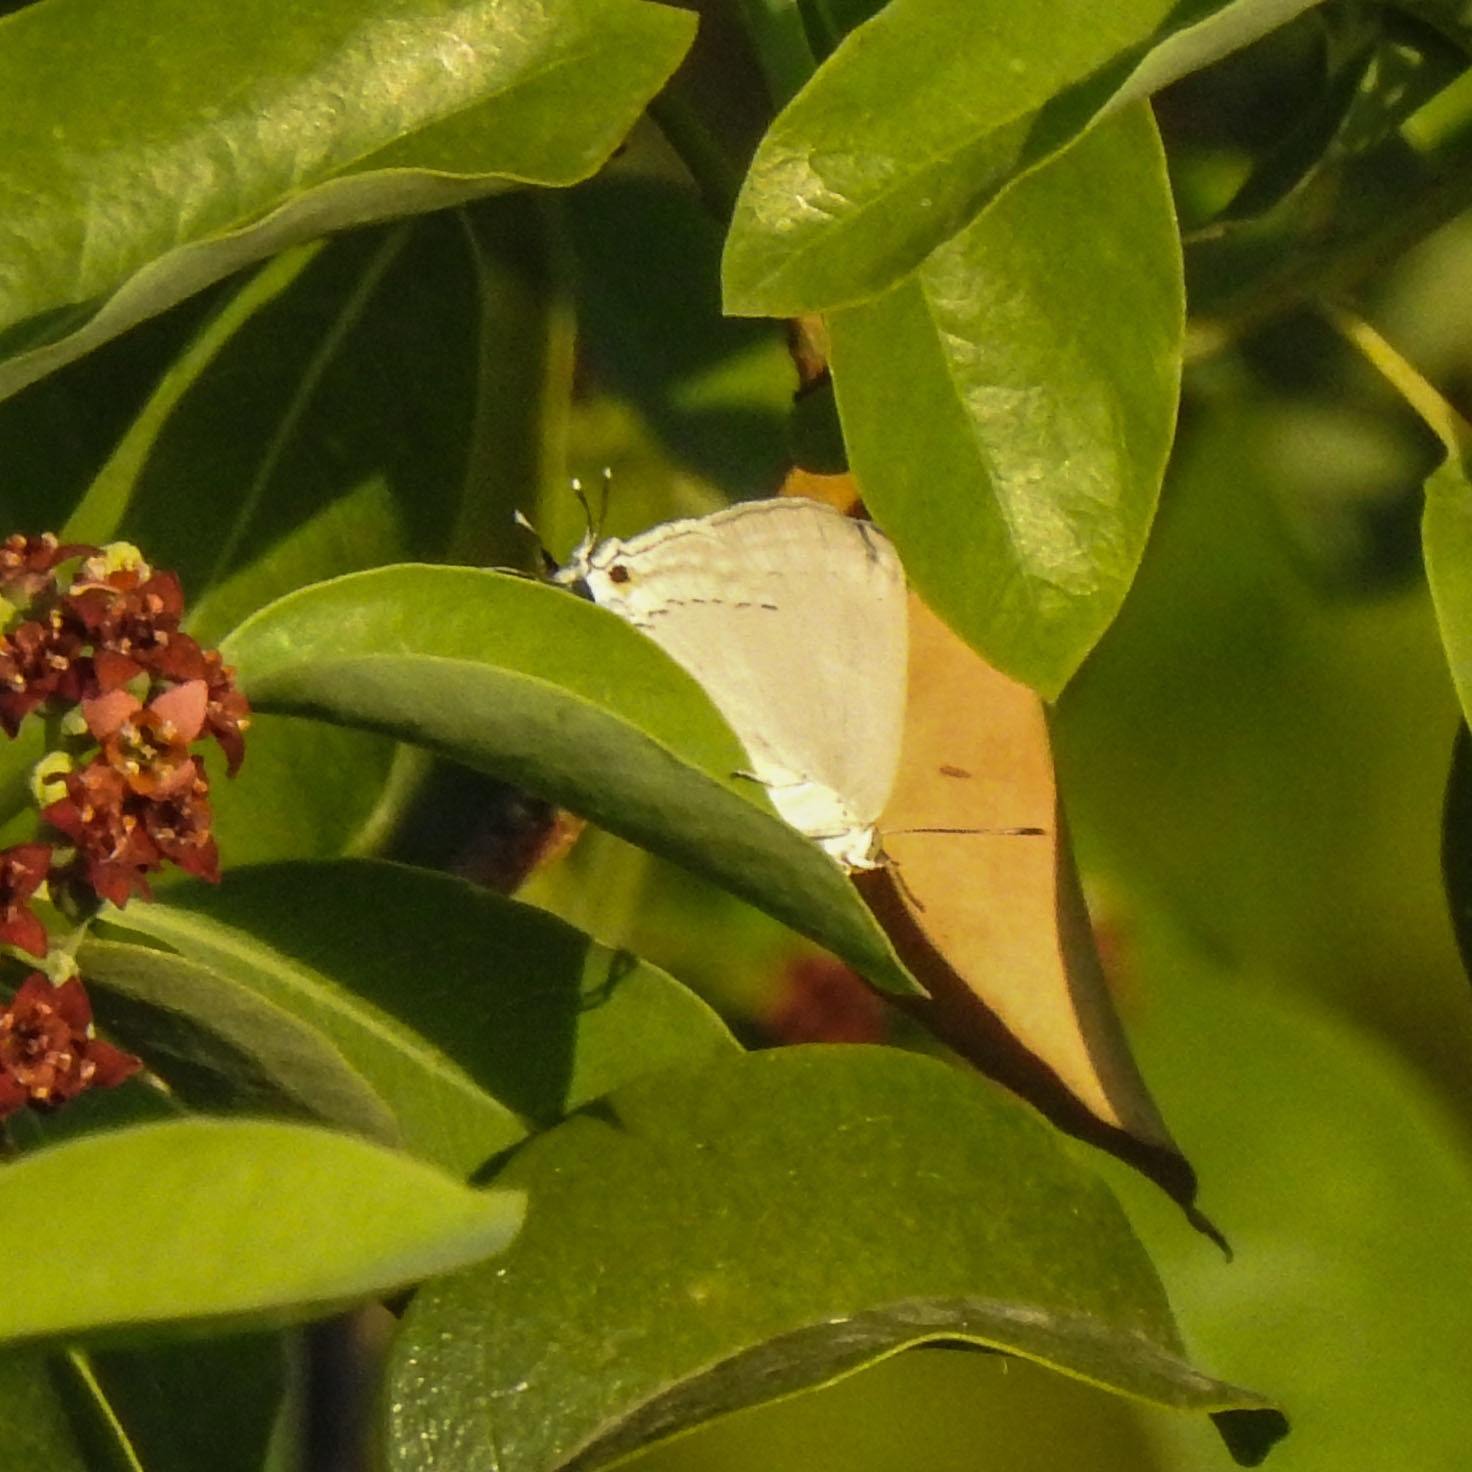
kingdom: Animalia
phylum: Arthropoda
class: Insecta
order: Lepidoptera
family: Lycaenidae
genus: Tajuria
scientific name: Tajuria jehana
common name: Plains blue royal
